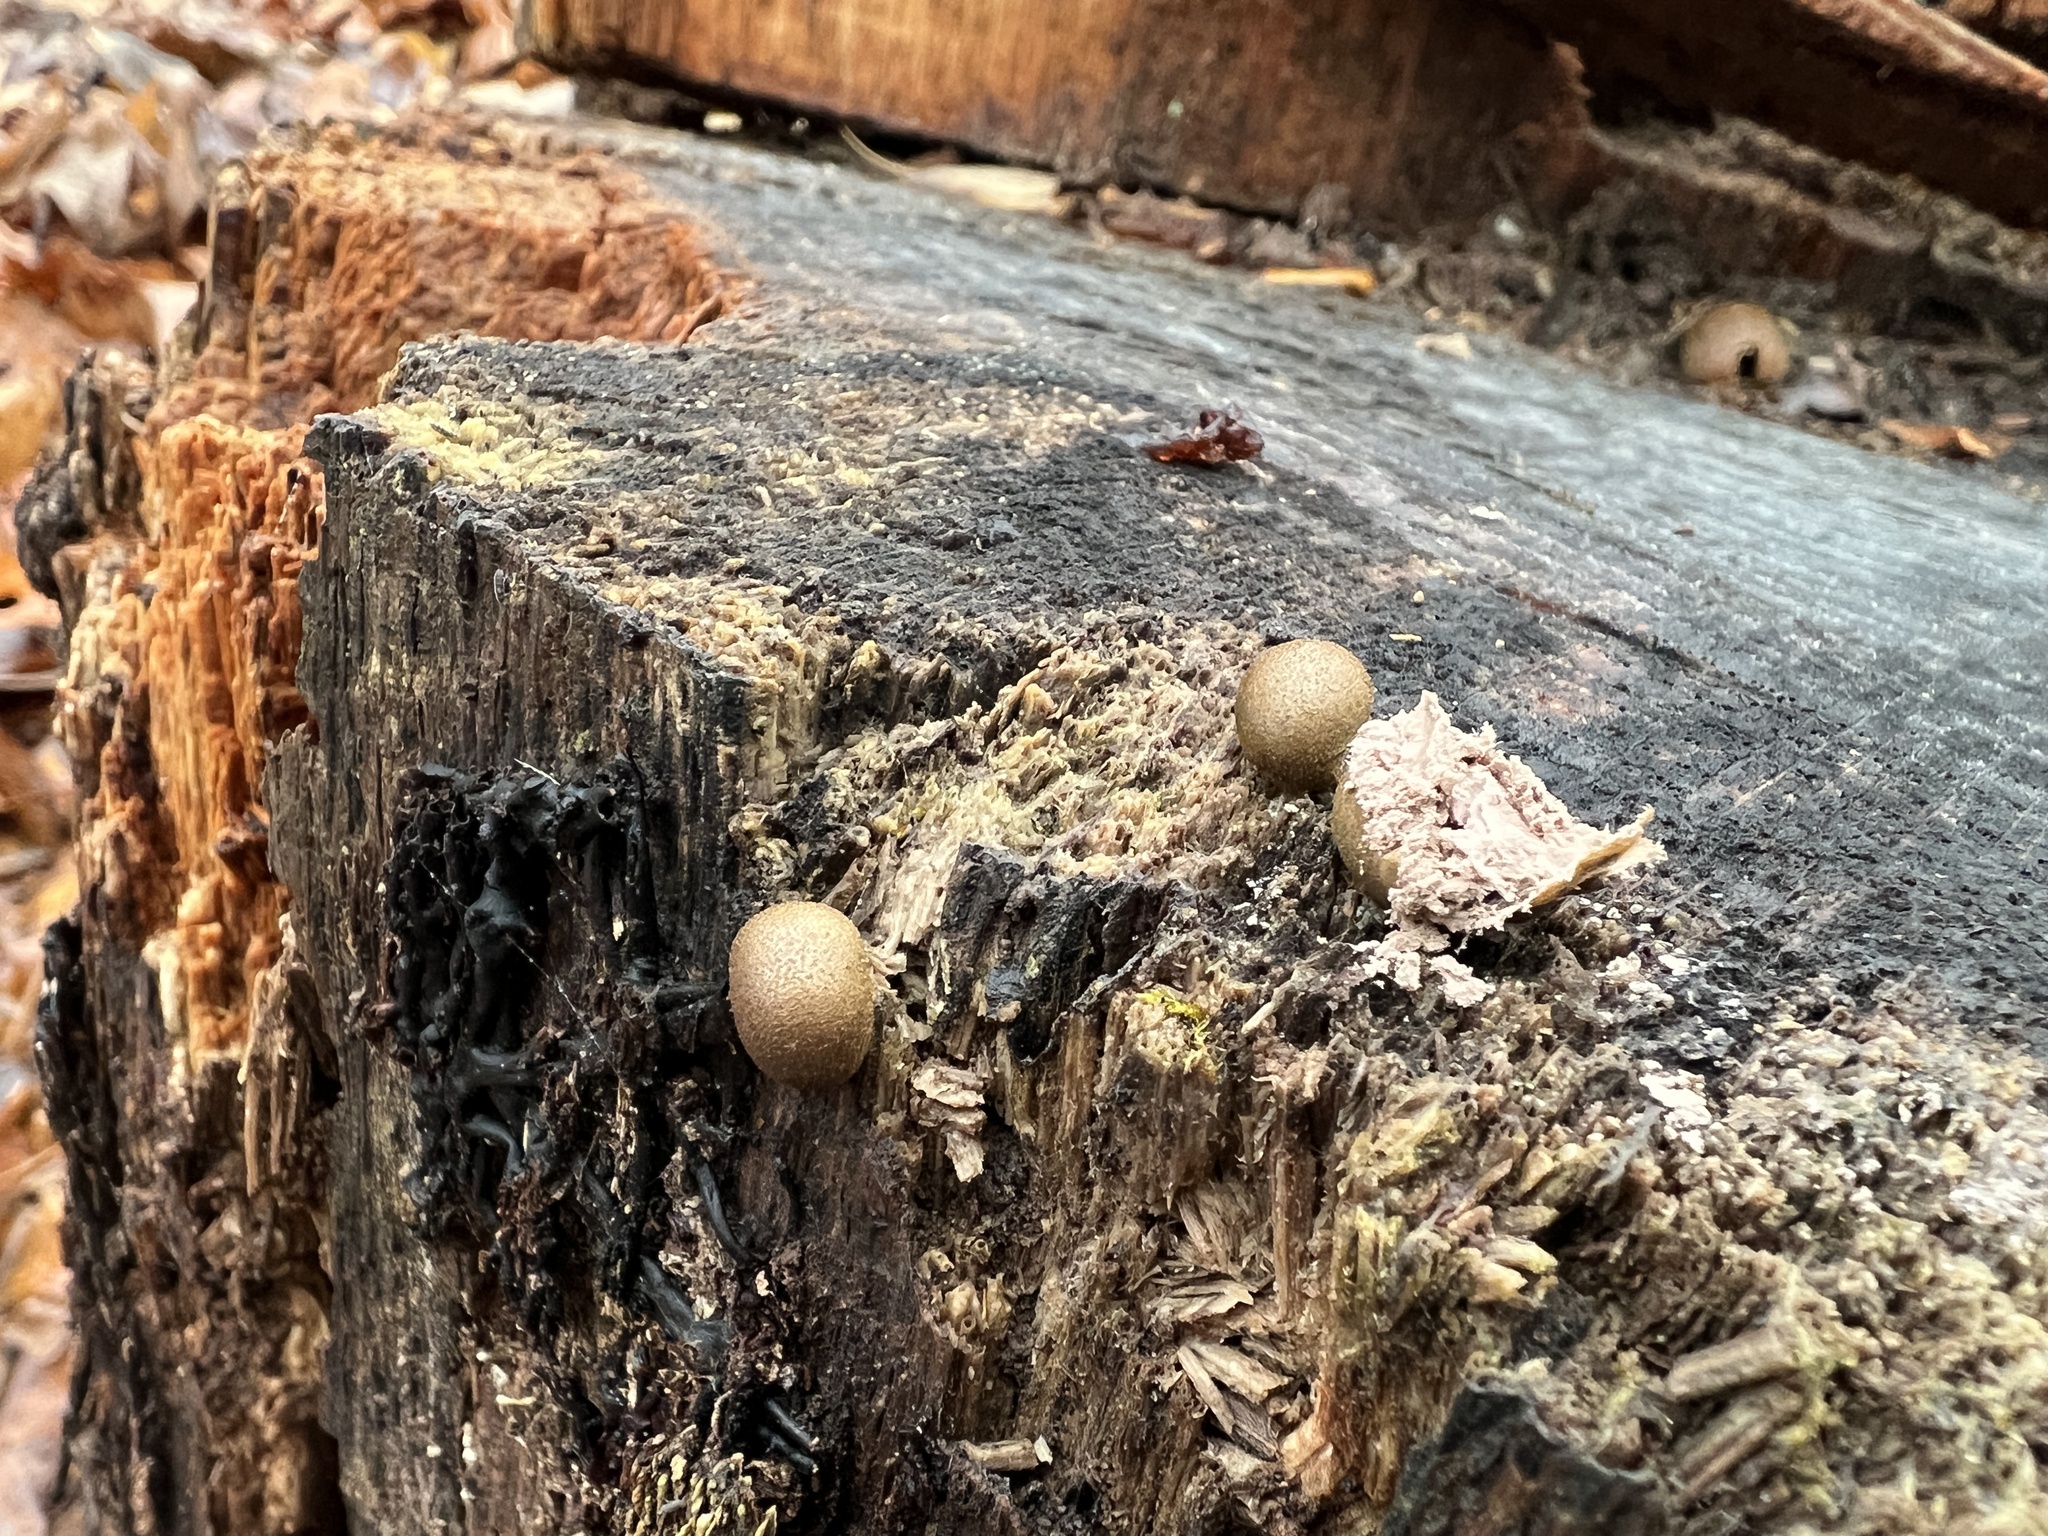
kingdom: Protozoa
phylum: Mycetozoa
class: Myxomycetes
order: Cribrariales
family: Tubiferaceae
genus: Lycogala
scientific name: Lycogala epidendrum
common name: Wolf's milk
